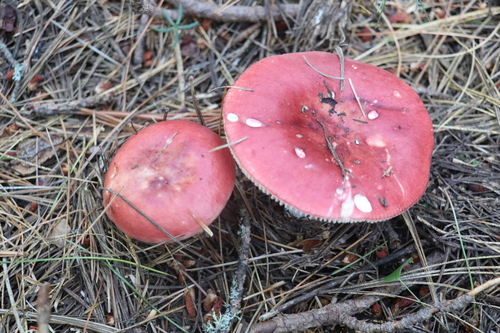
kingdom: Fungi
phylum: Basidiomycota
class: Agaricomycetes
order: Russulales
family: Russulaceae
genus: Russula
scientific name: Russula sanguinea
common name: Bloody brittlegill
